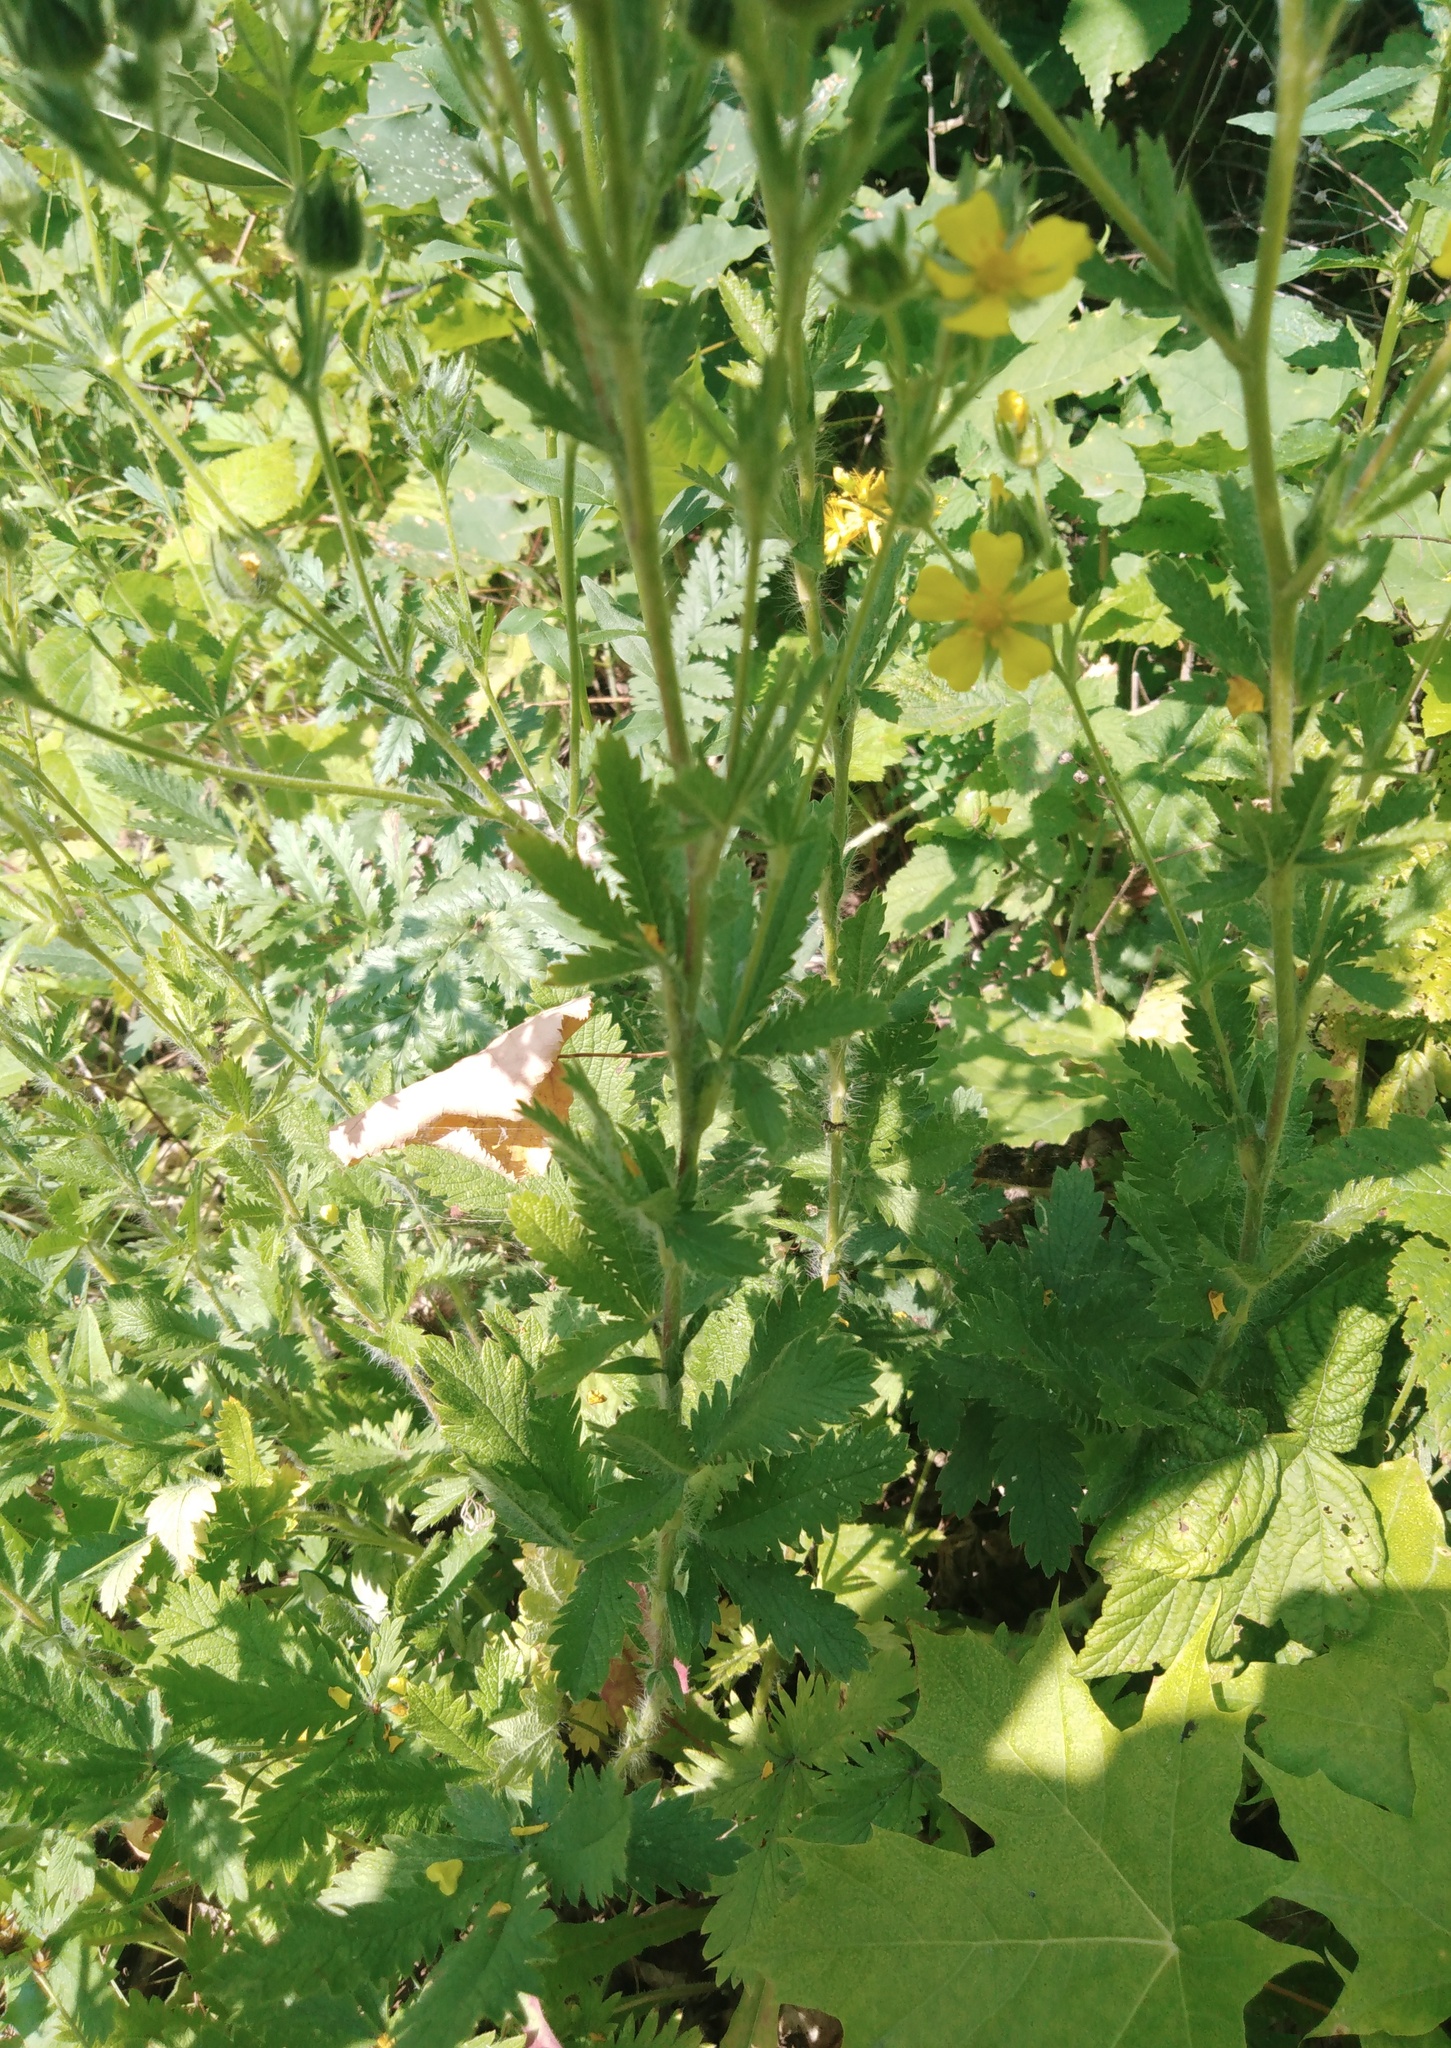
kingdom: Plantae
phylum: Tracheophyta
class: Magnoliopsida
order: Rosales
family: Rosaceae
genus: Potentilla
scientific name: Potentilla recta
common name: Sulphur cinquefoil
